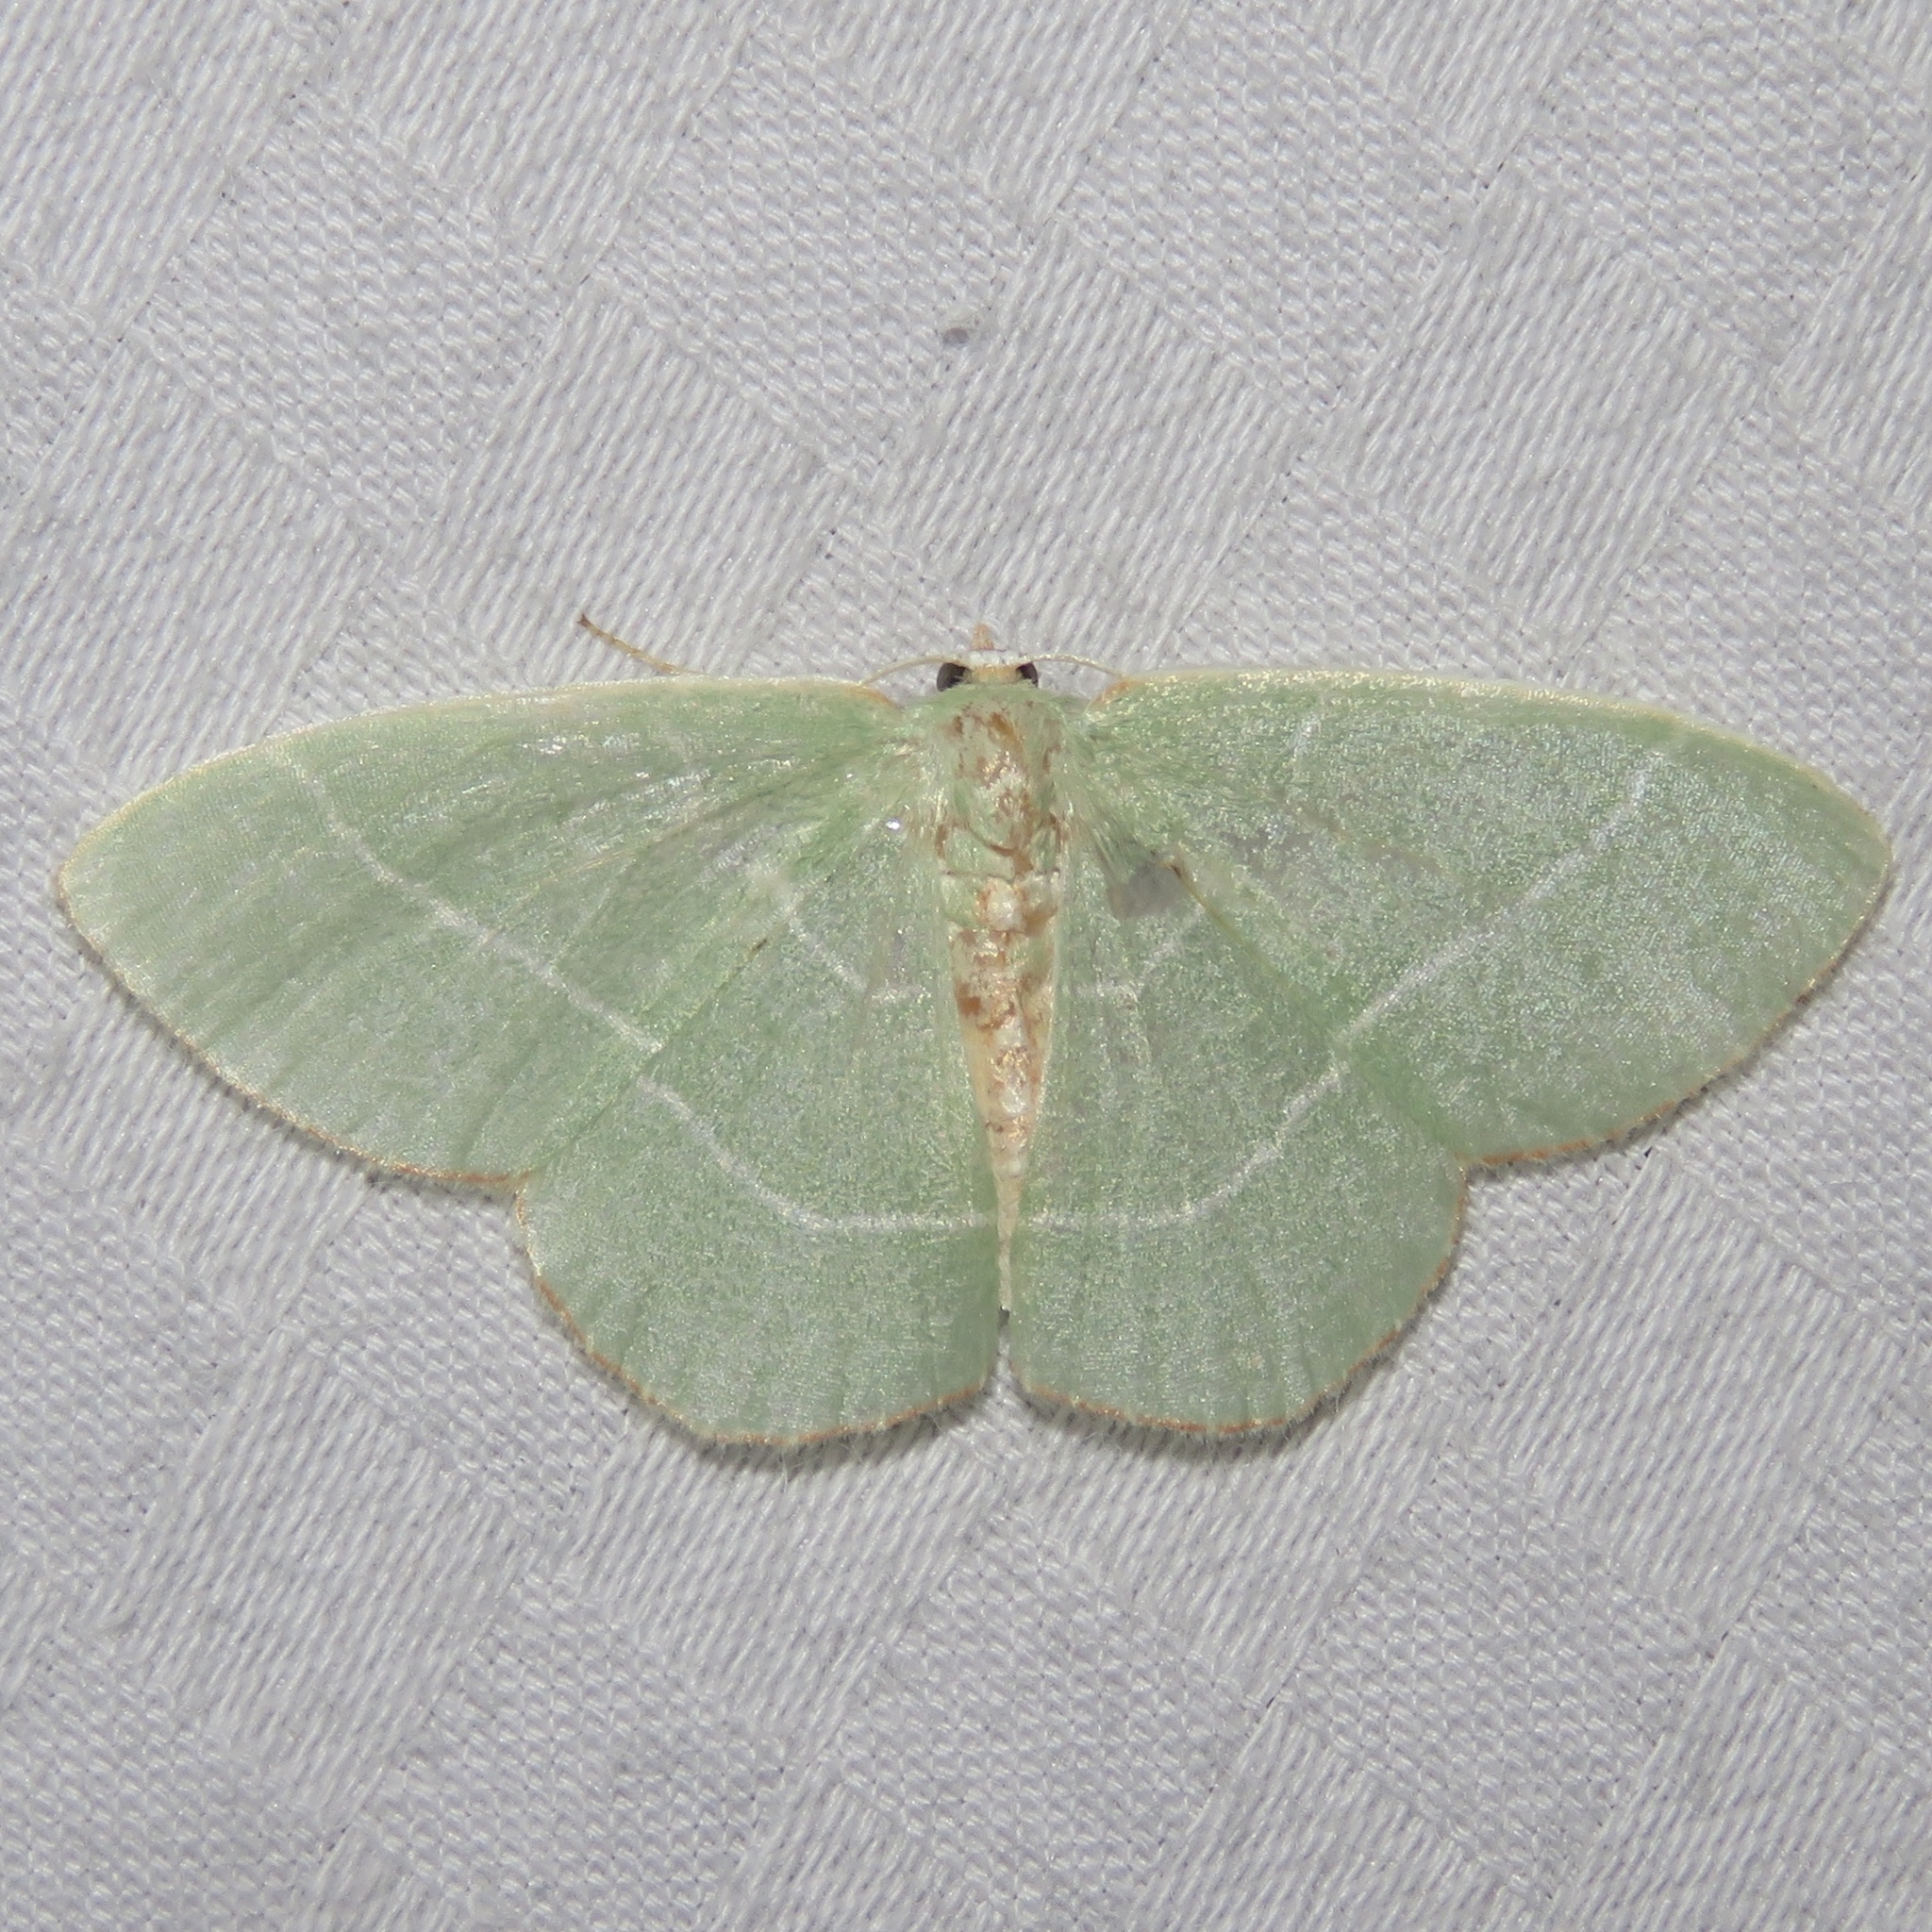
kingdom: Animalia
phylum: Arthropoda
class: Insecta
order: Lepidoptera
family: Geometridae
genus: Nemoria
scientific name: Nemoria bistriaria
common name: Red-fringed emerald
